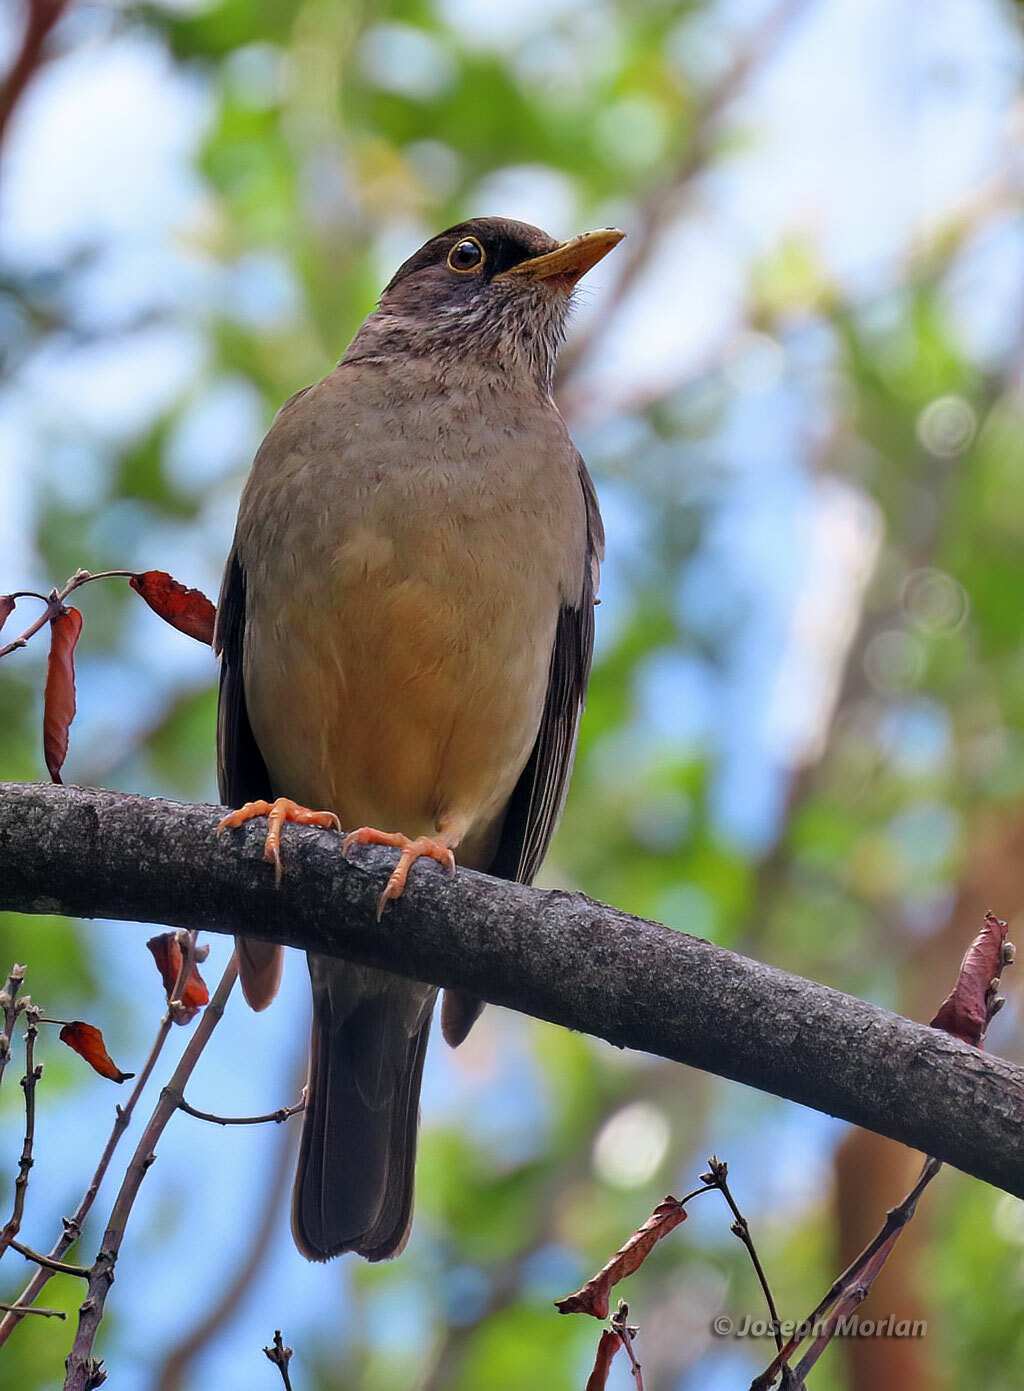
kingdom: Animalia
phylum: Chordata
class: Aves
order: Passeriformes
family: Turdidae
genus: Turdus
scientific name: Turdus falcklandii
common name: Austral thrush
